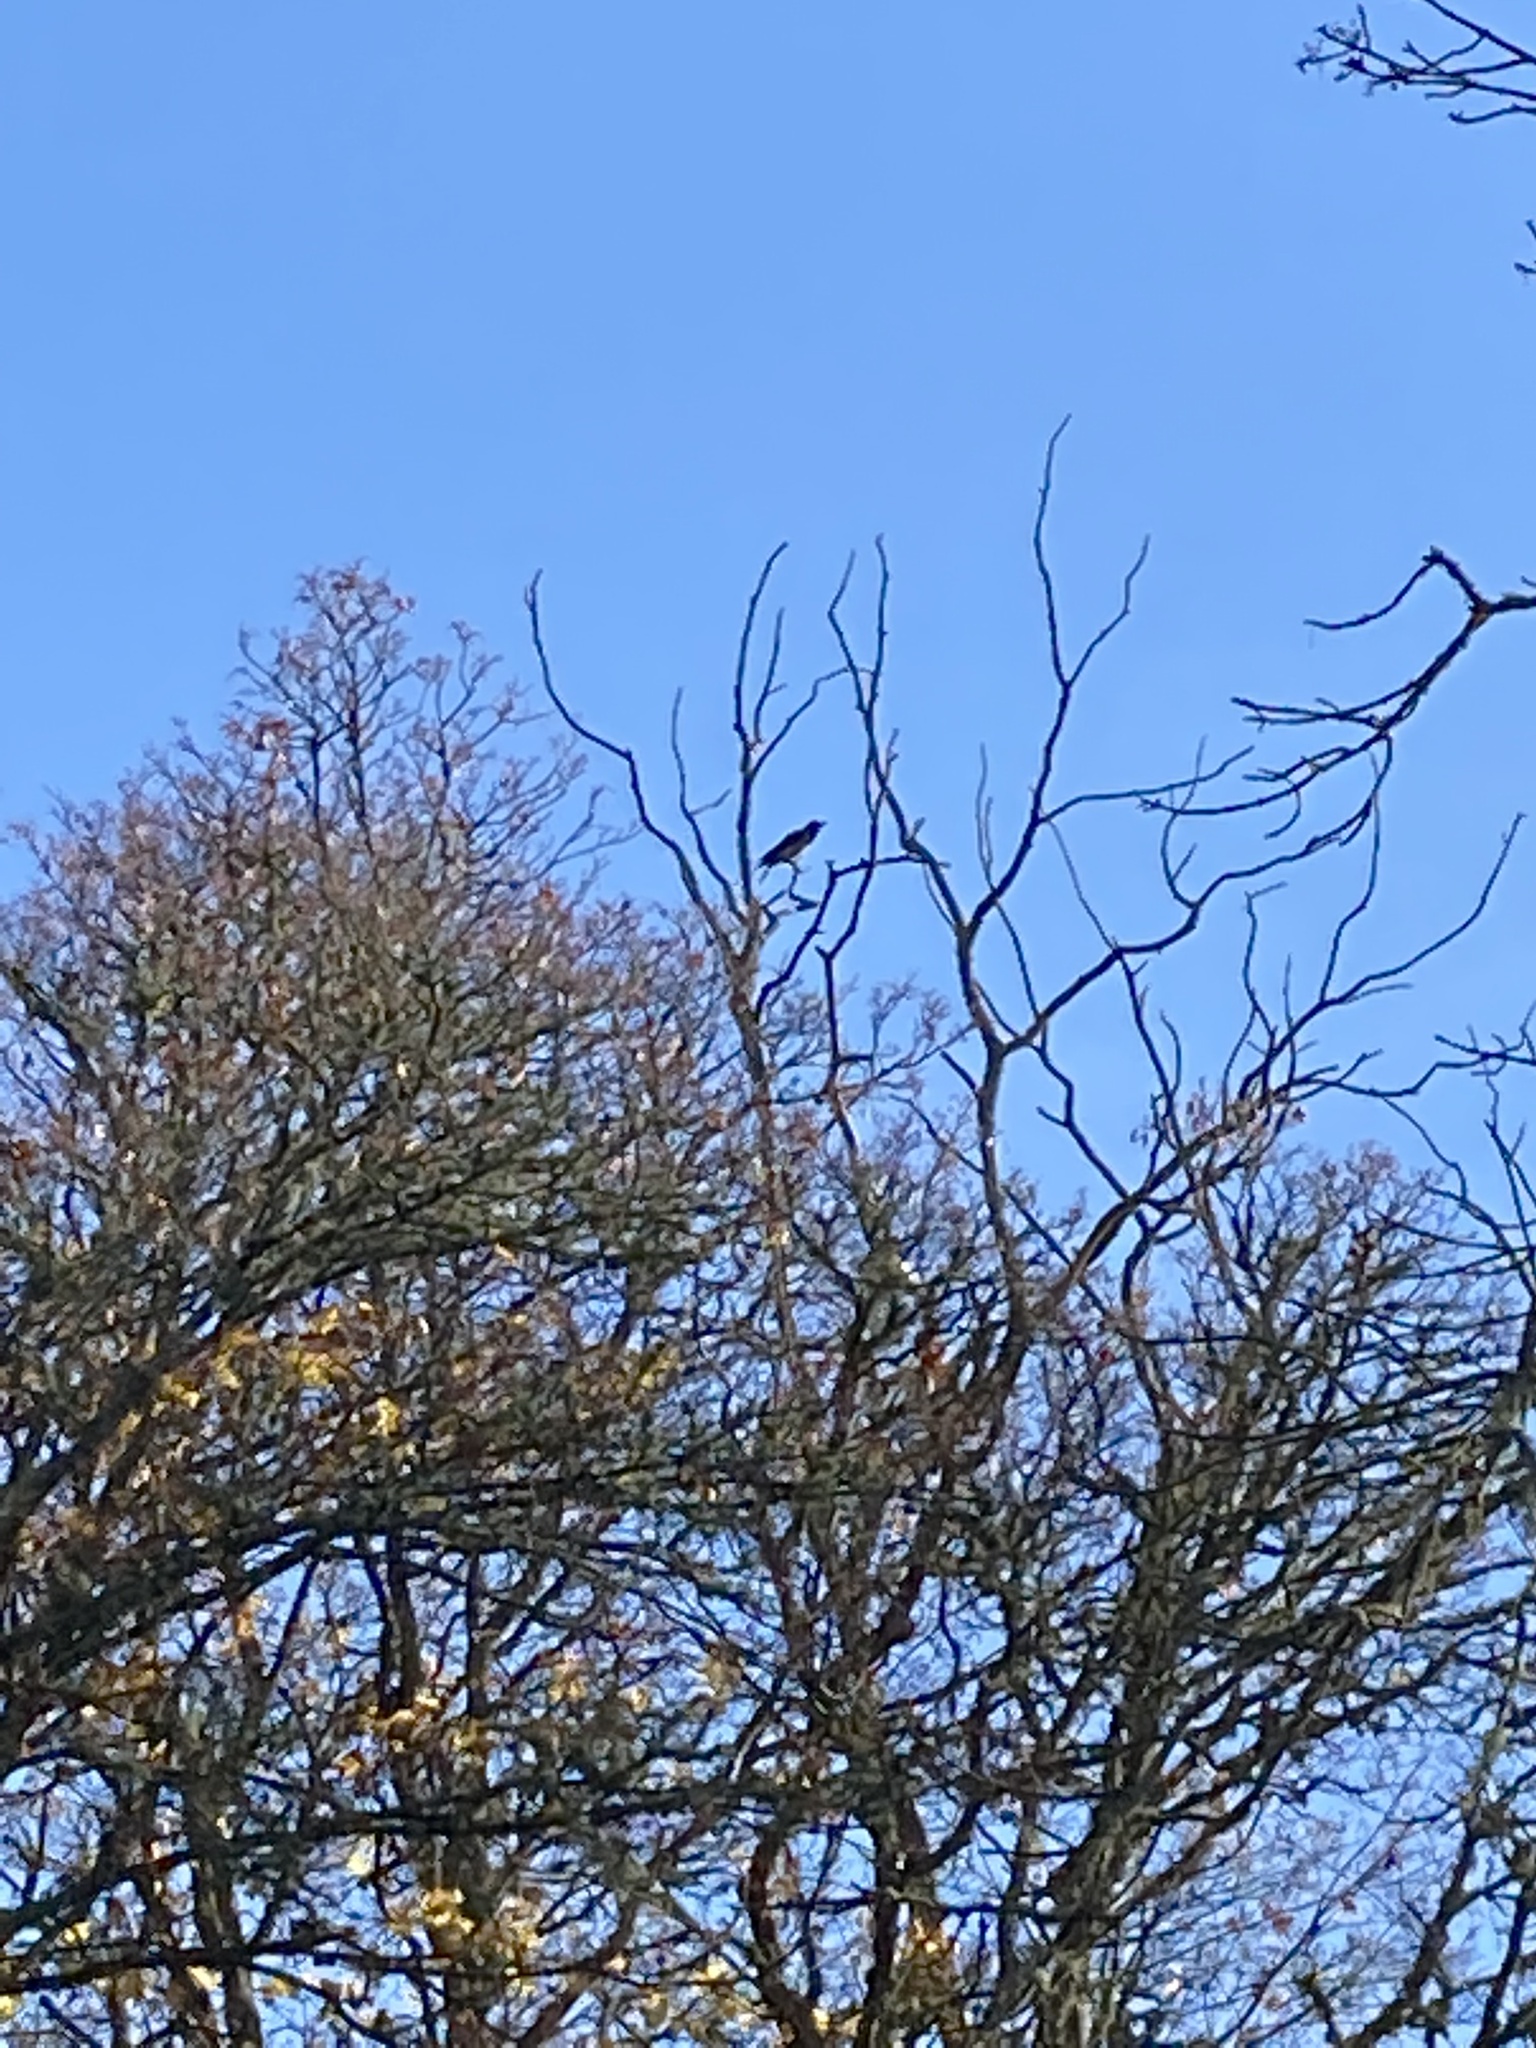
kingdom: Animalia
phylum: Chordata
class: Aves
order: Passeriformes
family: Corvidae
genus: Corvus
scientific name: Corvus cornix
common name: Hooded crow
